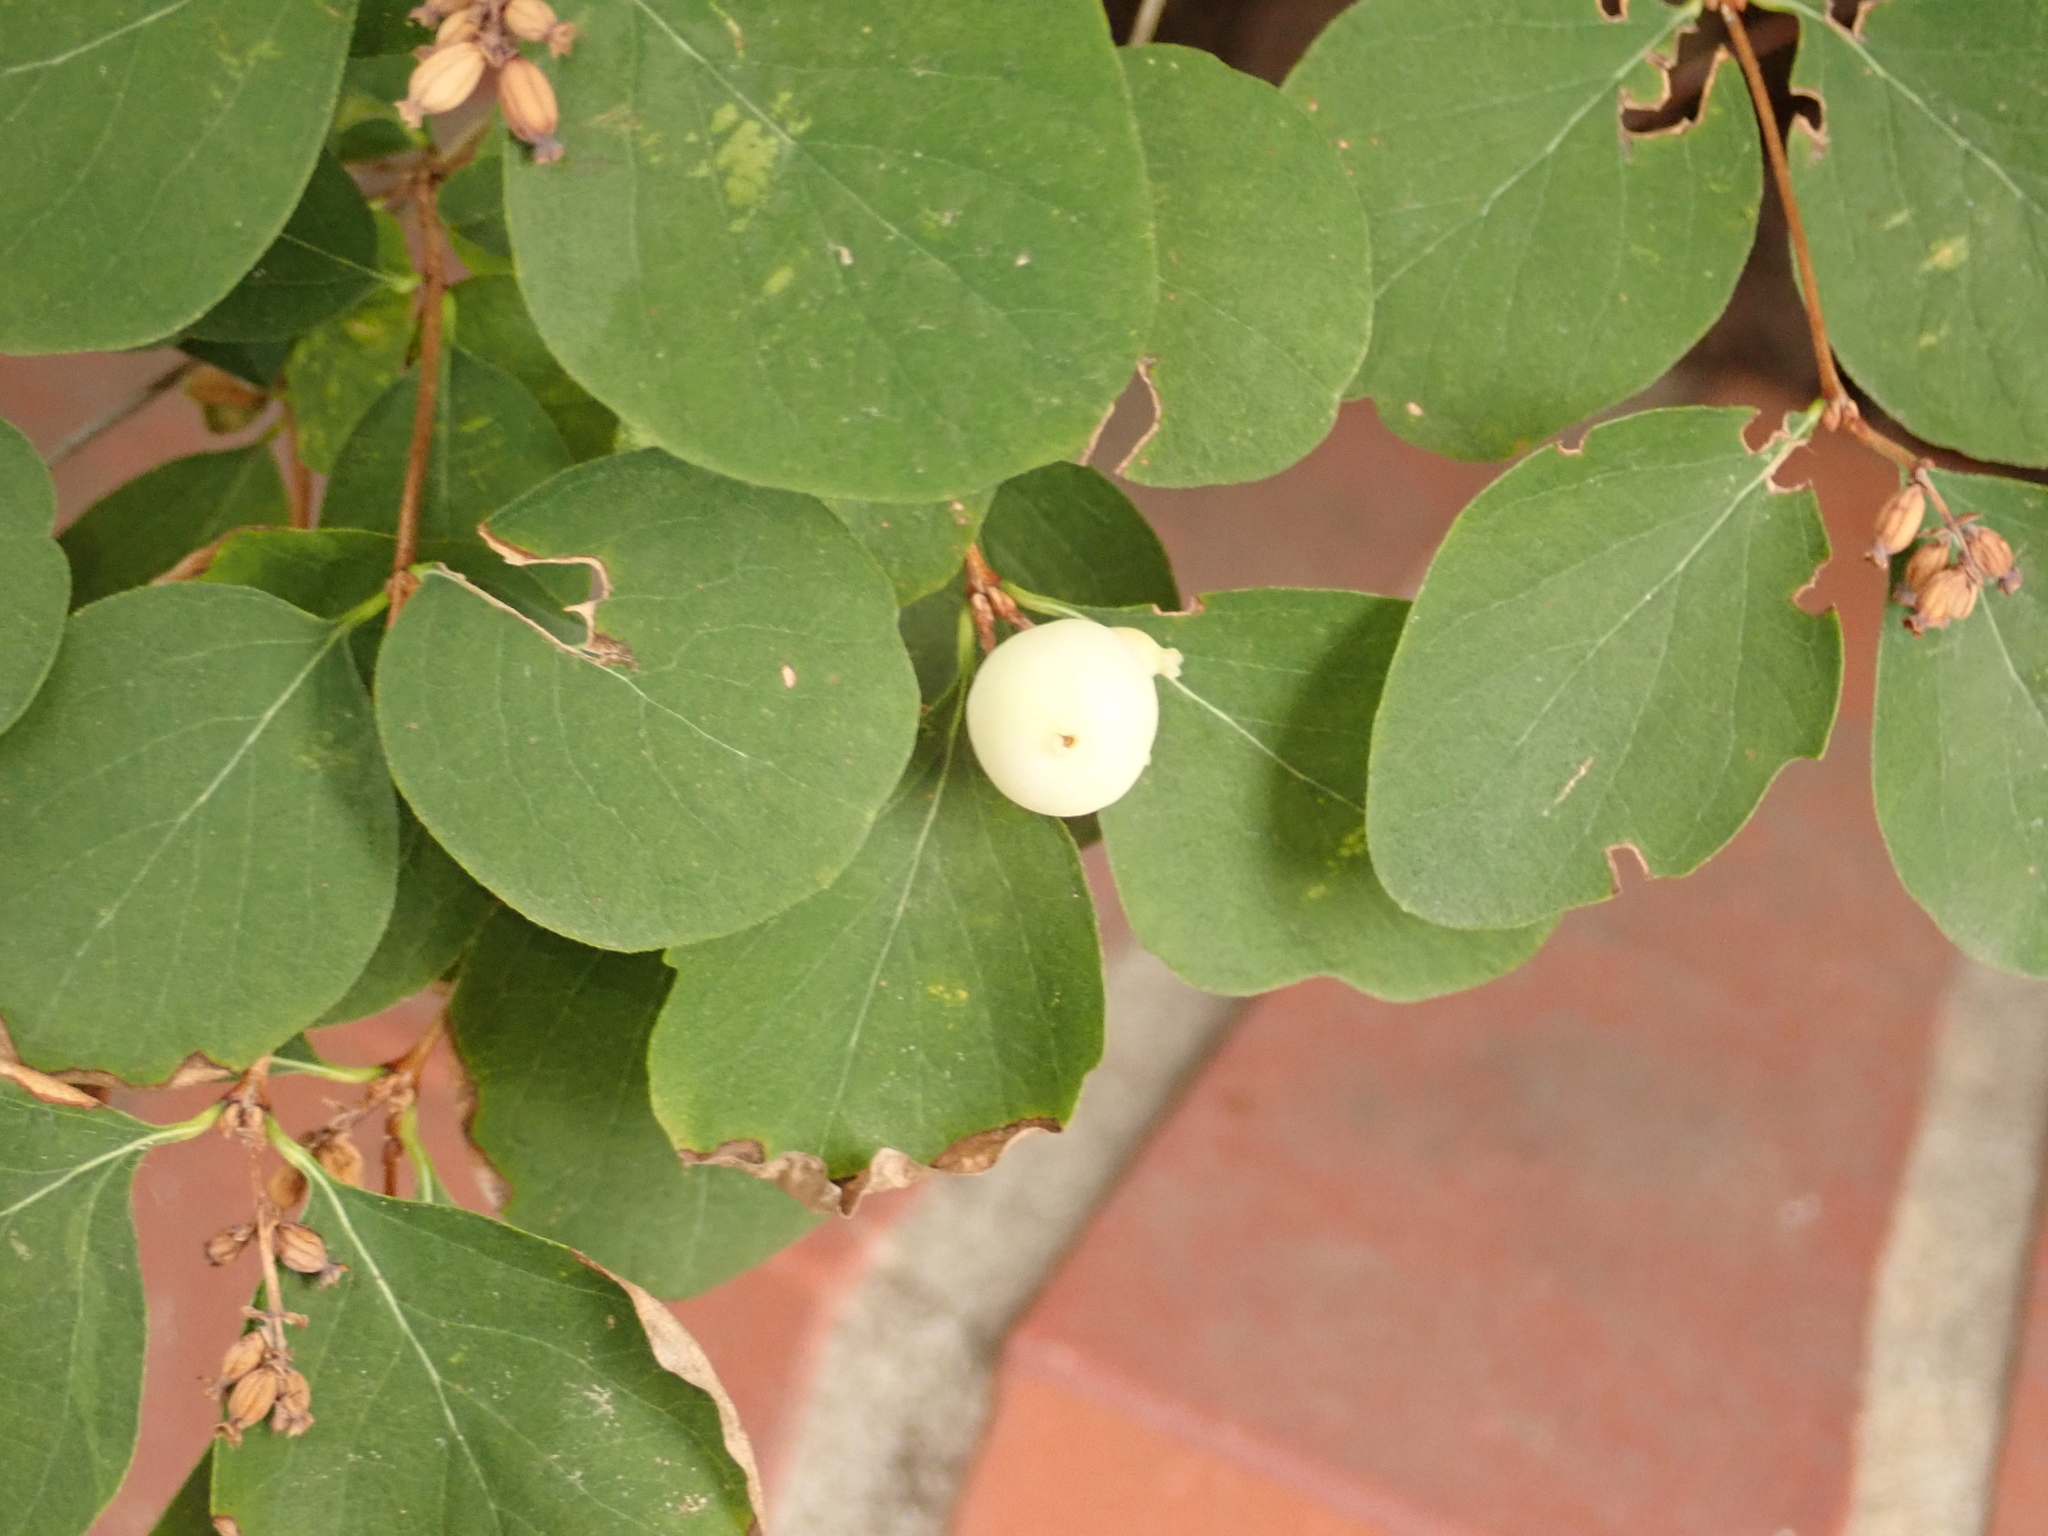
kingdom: Plantae
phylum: Tracheophyta
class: Magnoliopsida
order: Dipsacales
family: Caprifoliaceae
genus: Symphoricarpos
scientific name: Symphoricarpos albus
